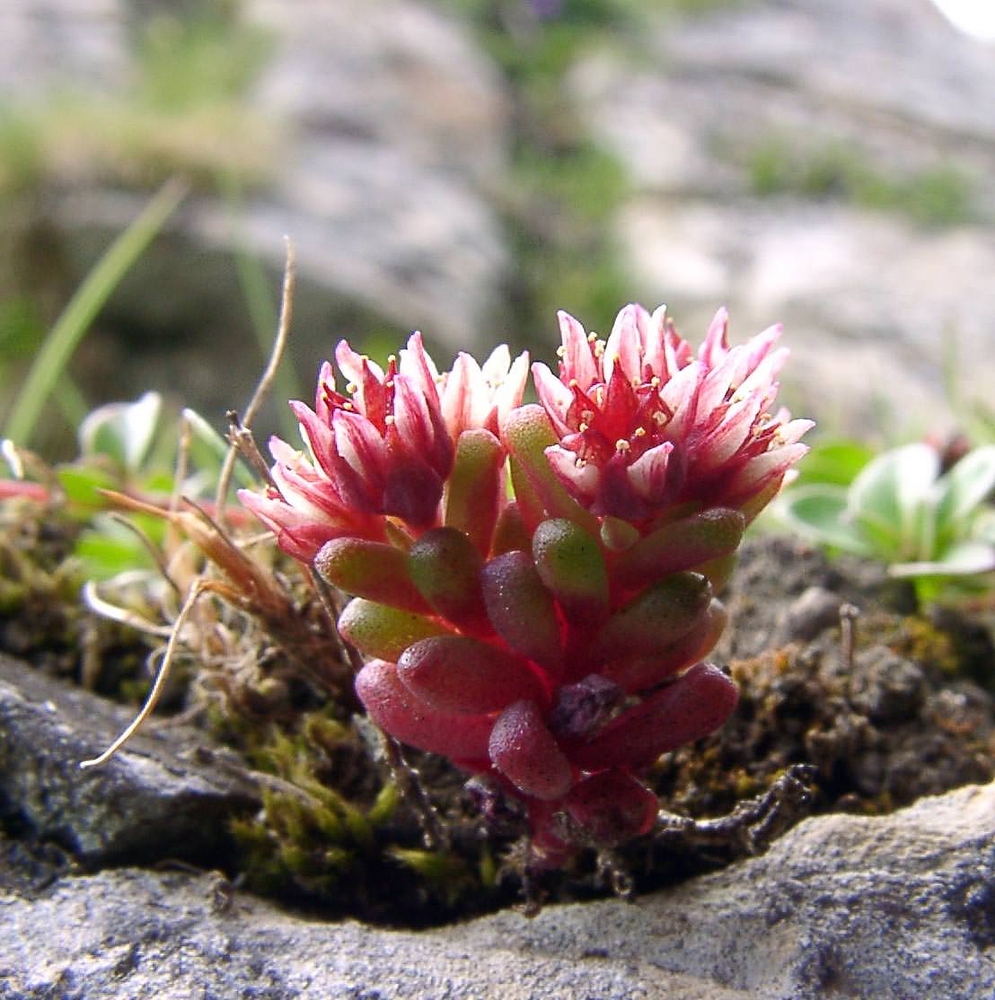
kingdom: Plantae
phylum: Tracheophyta
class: Magnoliopsida
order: Saxifragales
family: Crassulaceae
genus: Sedum
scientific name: Sedum atratum
